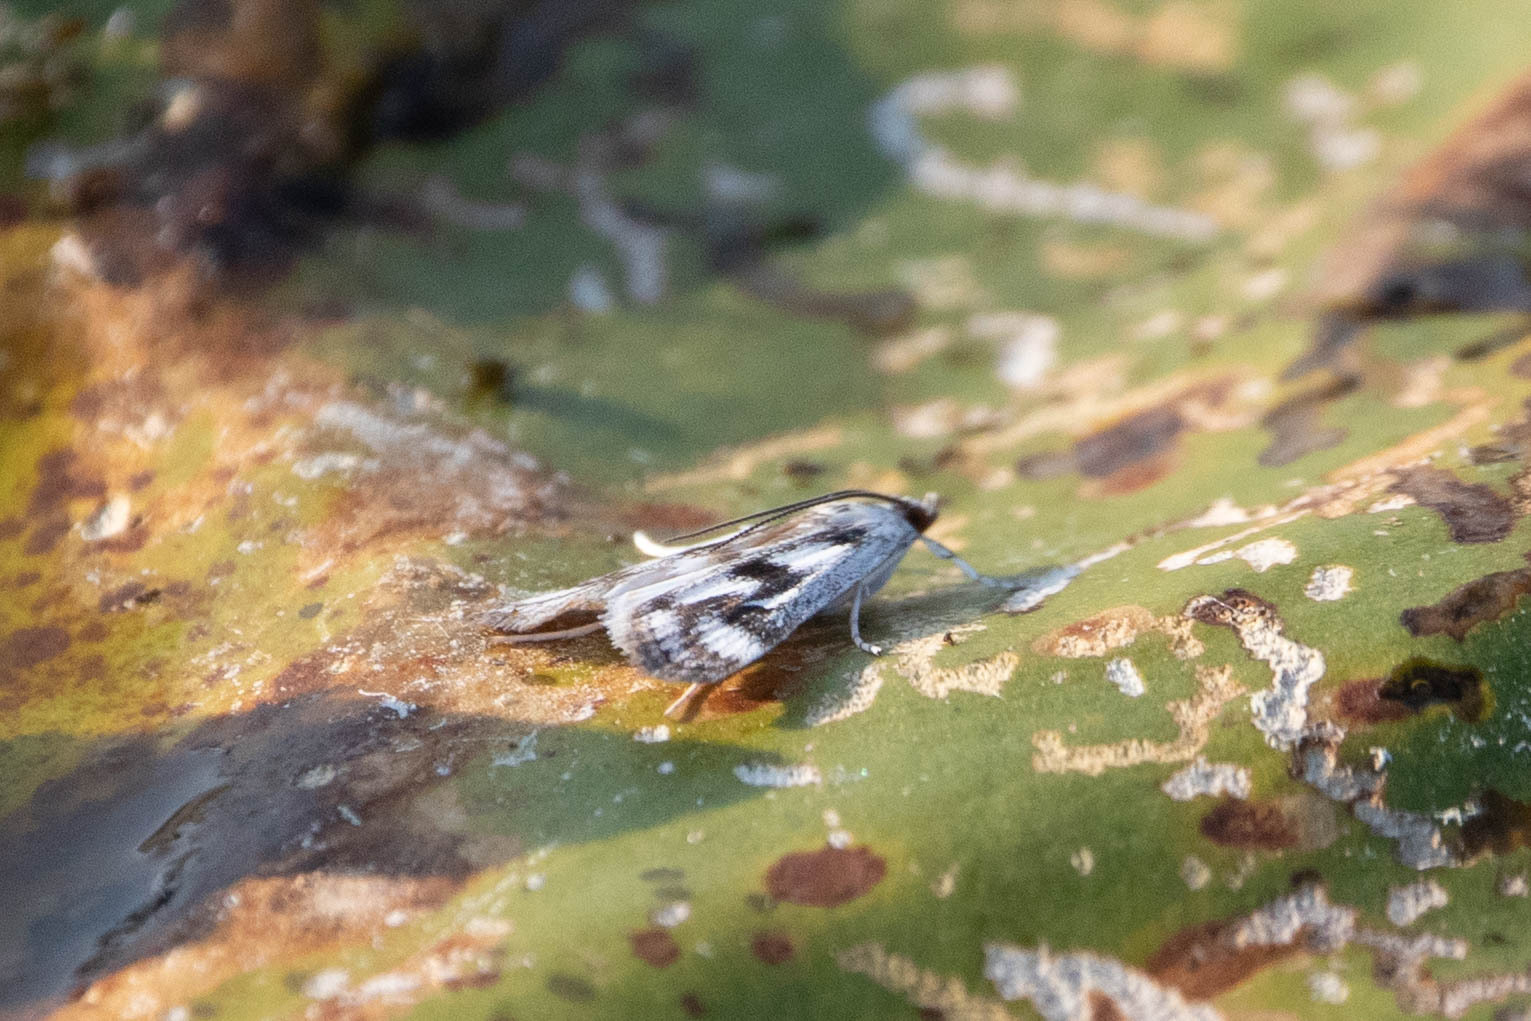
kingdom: Animalia
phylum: Arthropoda
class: Insecta
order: Lepidoptera
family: Crambidae
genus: Parapoynx
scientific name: Parapoynx maculalis
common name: Polymorphic pondweed moth
